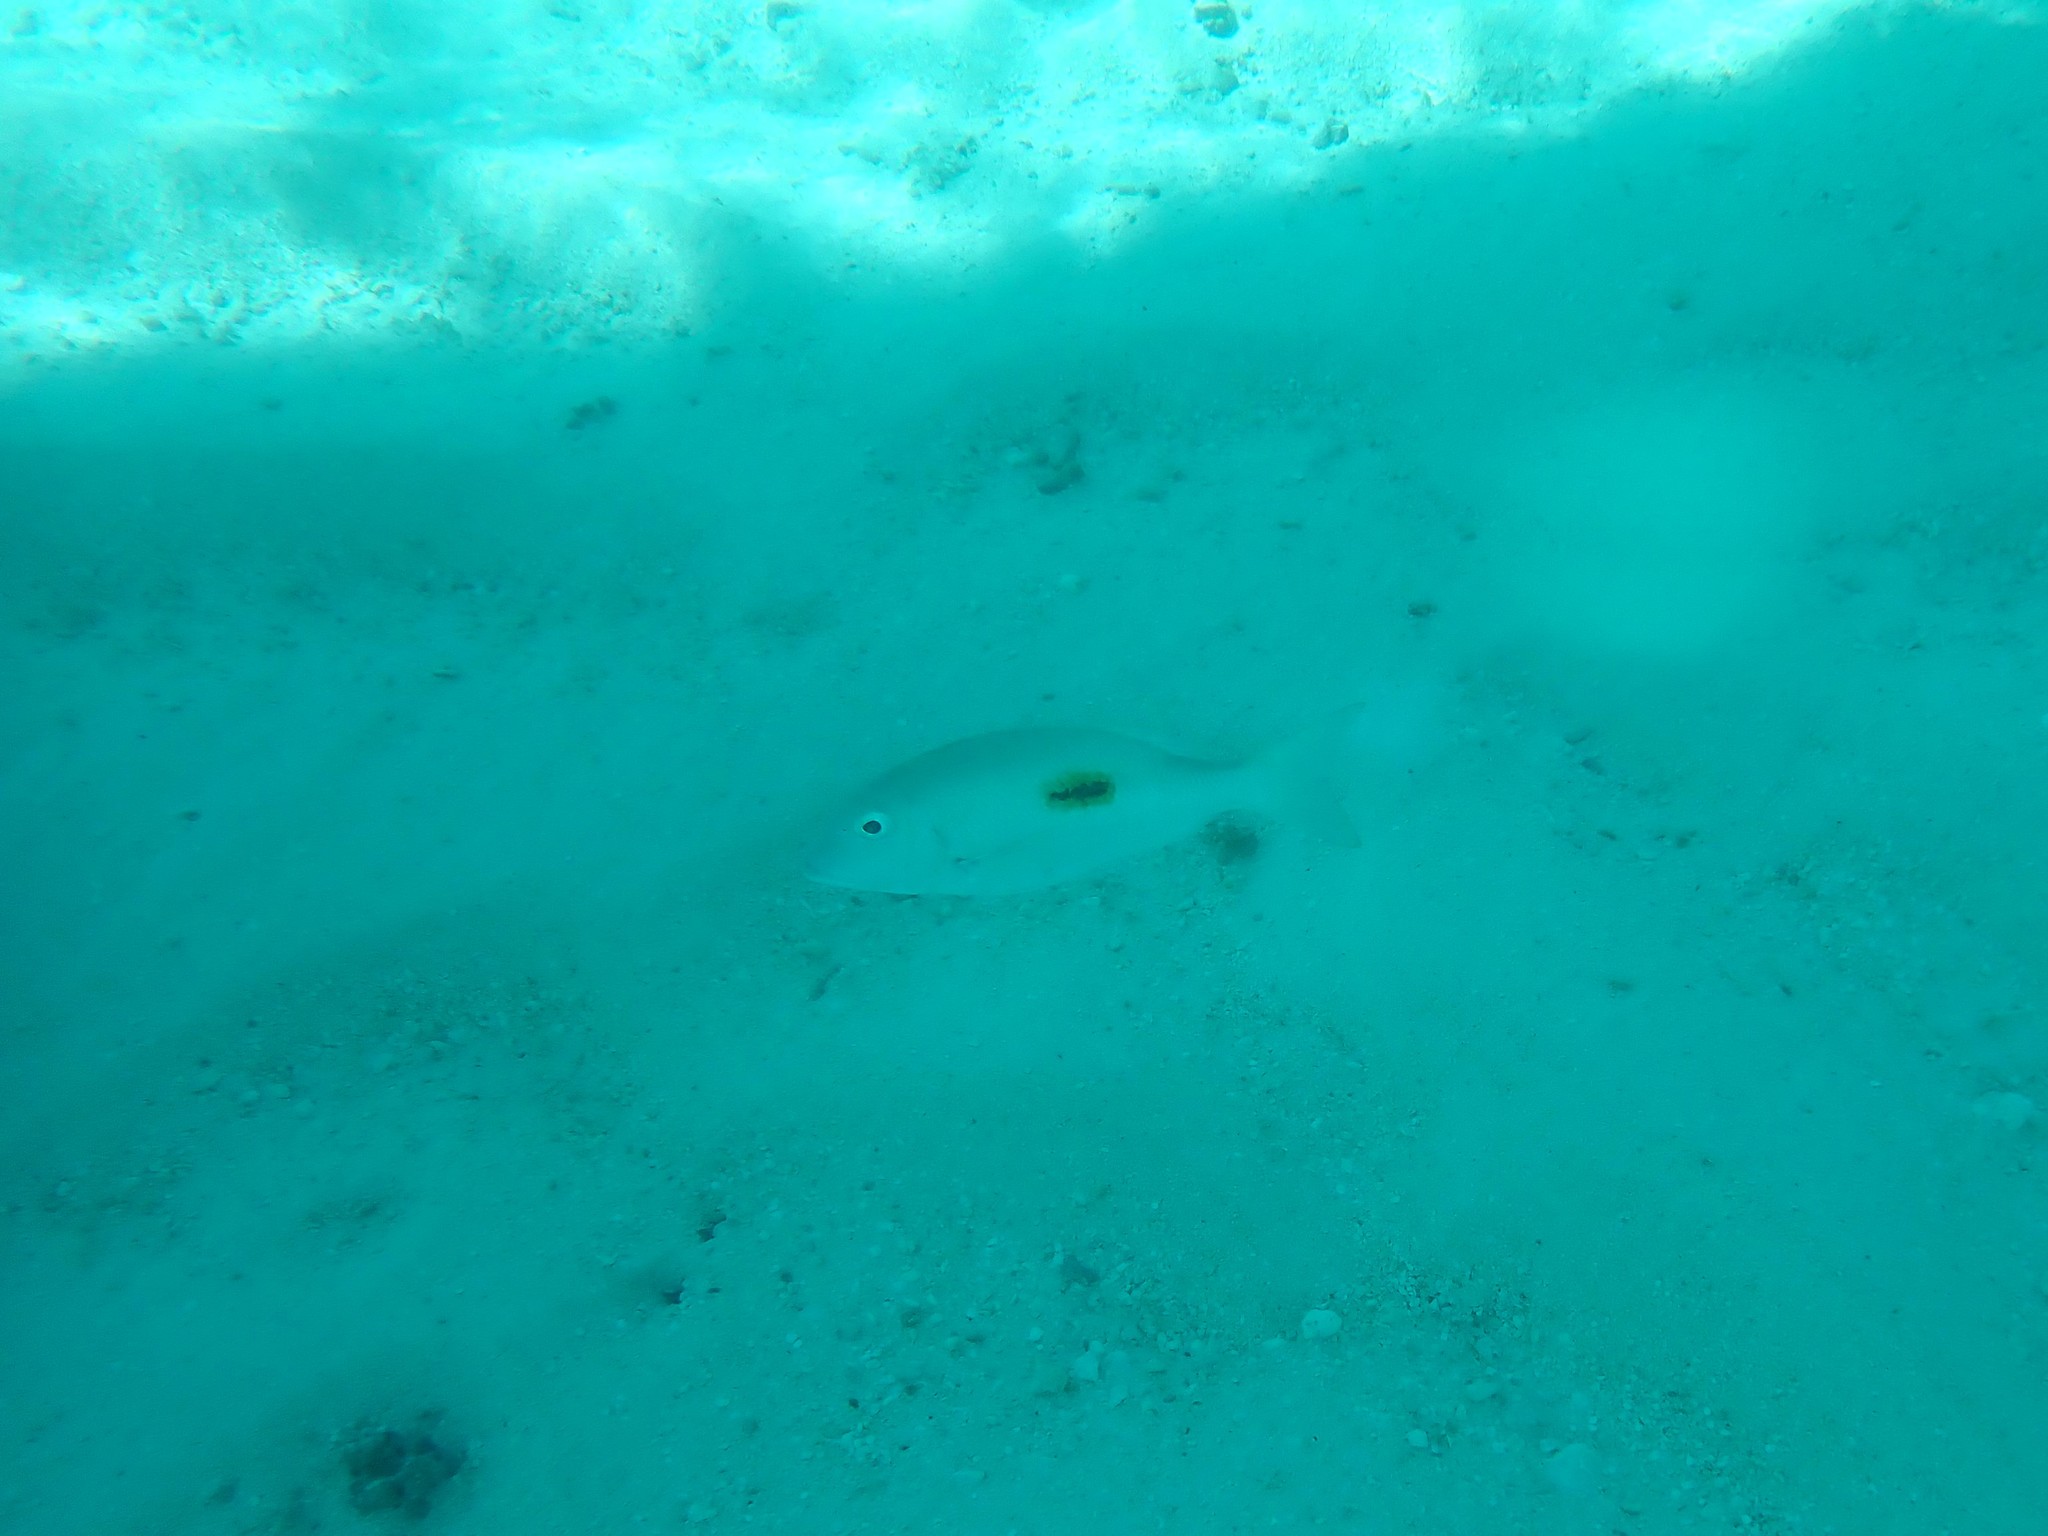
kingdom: Animalia
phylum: Chordata
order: Perciformes
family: Lethrinidae
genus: Lethrinus
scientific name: Lethrinus harak
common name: Blackspot emperor
